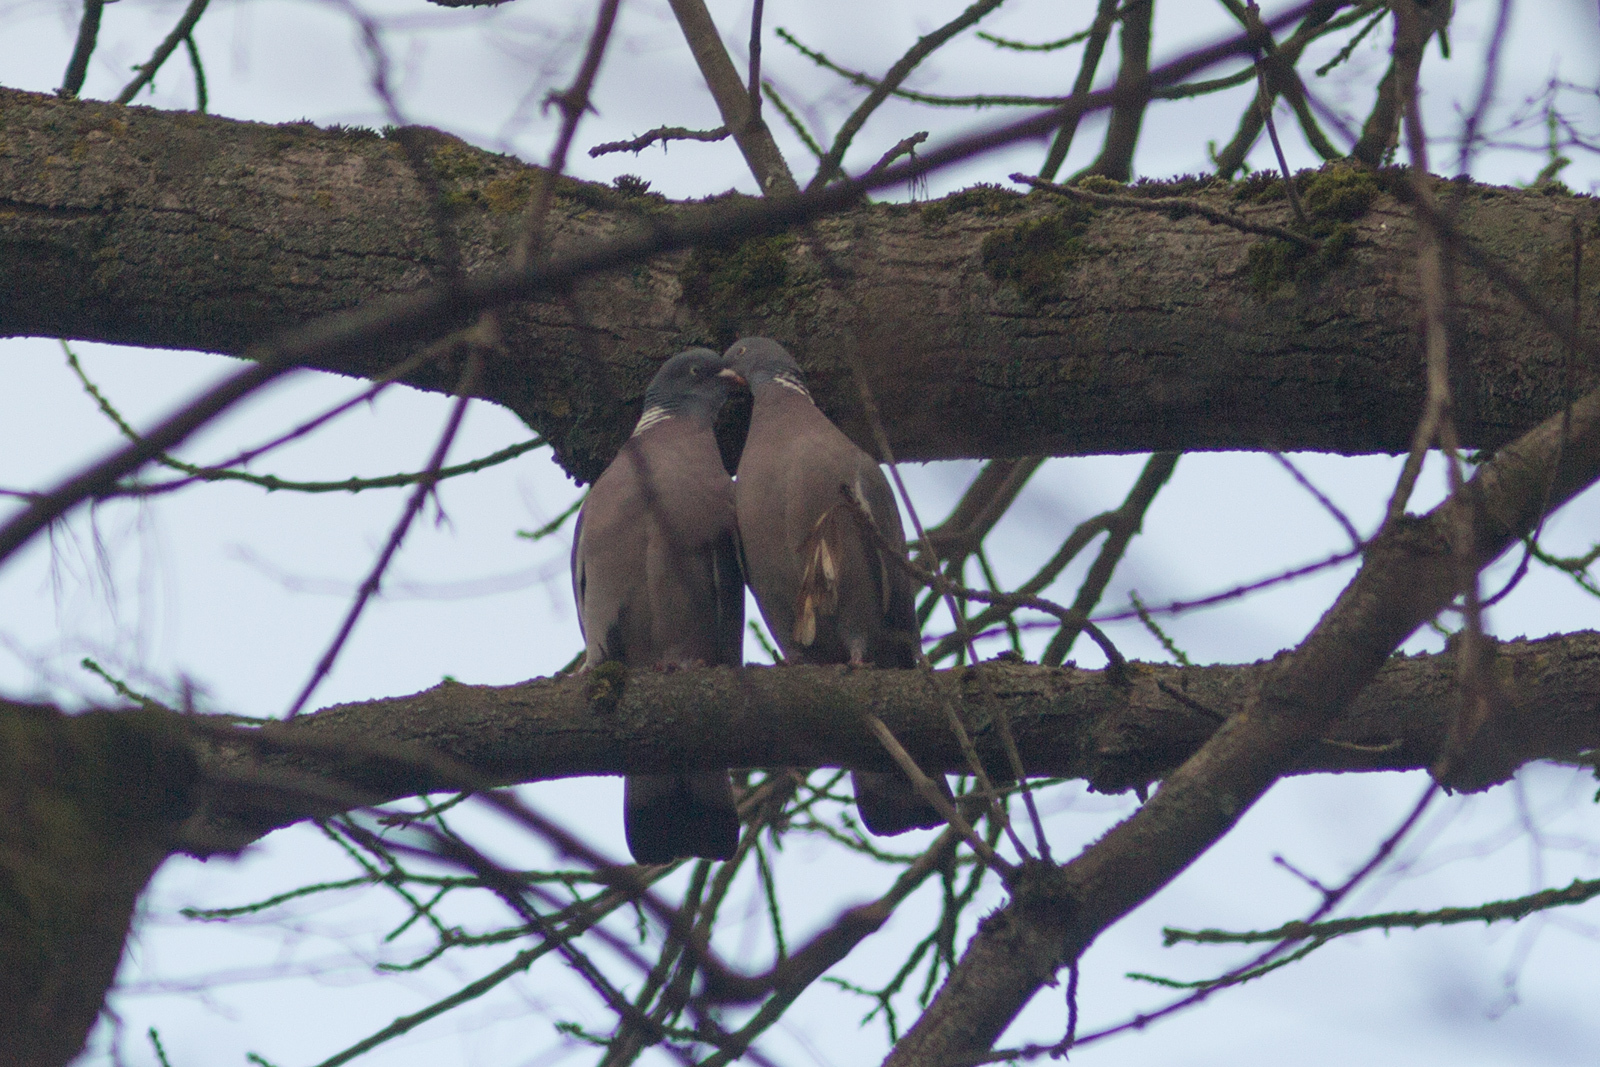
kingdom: Animalia
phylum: Chordata
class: Aves
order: Columbiformes
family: Columbidae
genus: Columba
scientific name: Columba palumbus
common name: Common wood pigeon
